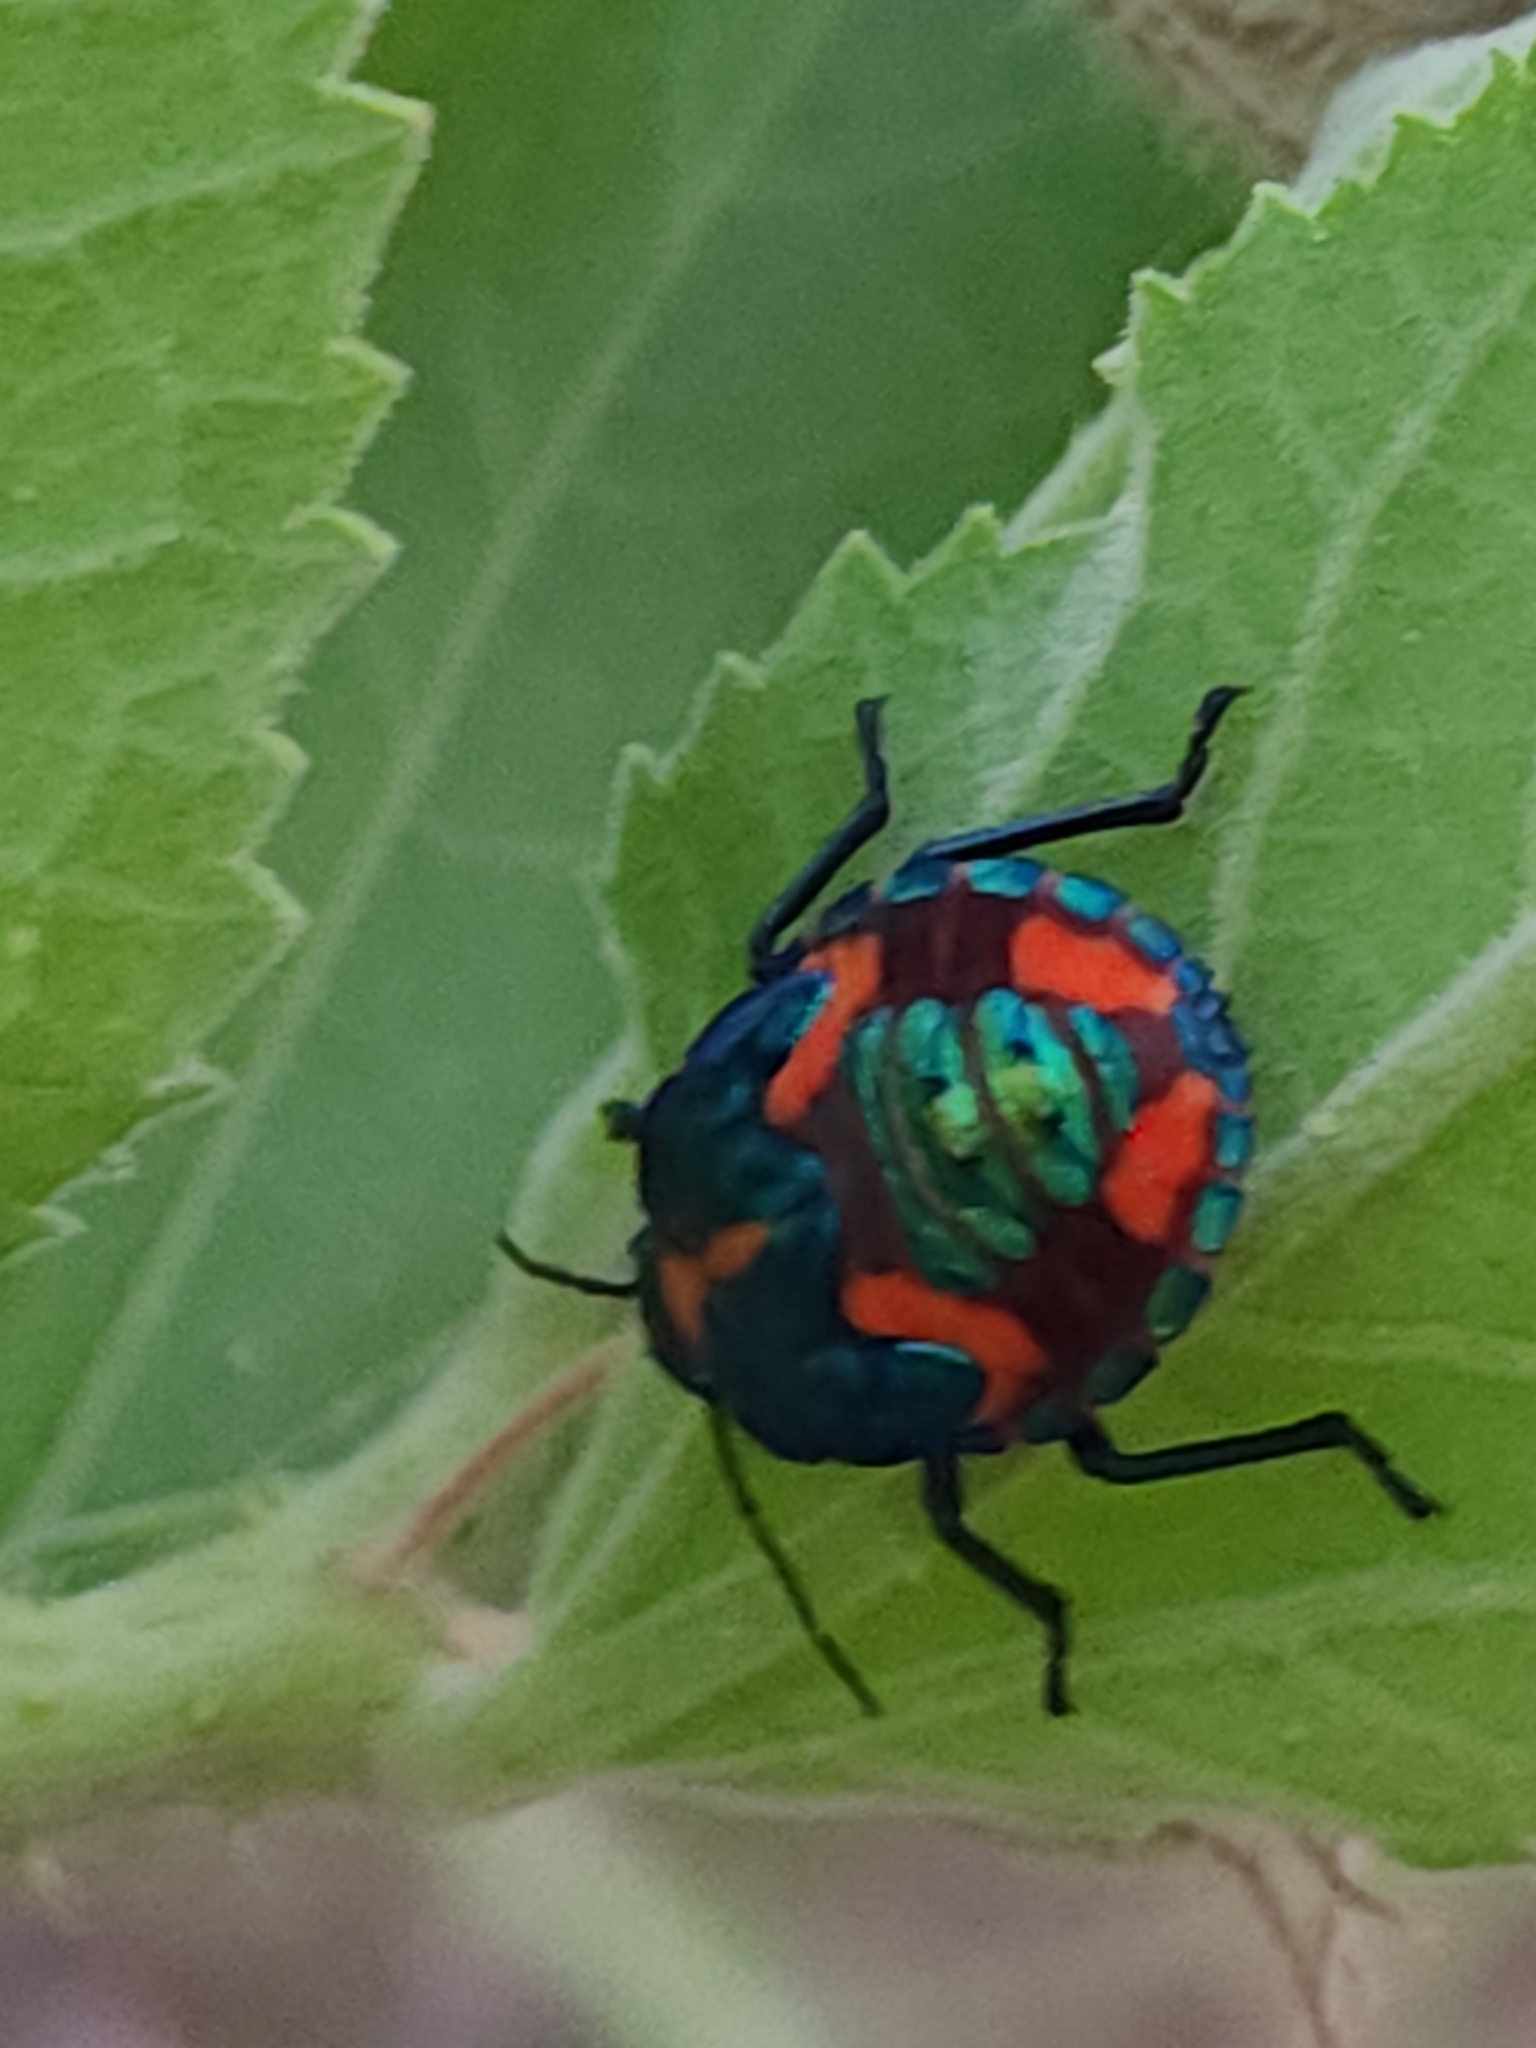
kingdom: Animalia
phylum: Arthropoda
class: Insecta
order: Hemiptera
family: Scutelleridae
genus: Tectocoris
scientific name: Tectocoris diophthalmus
